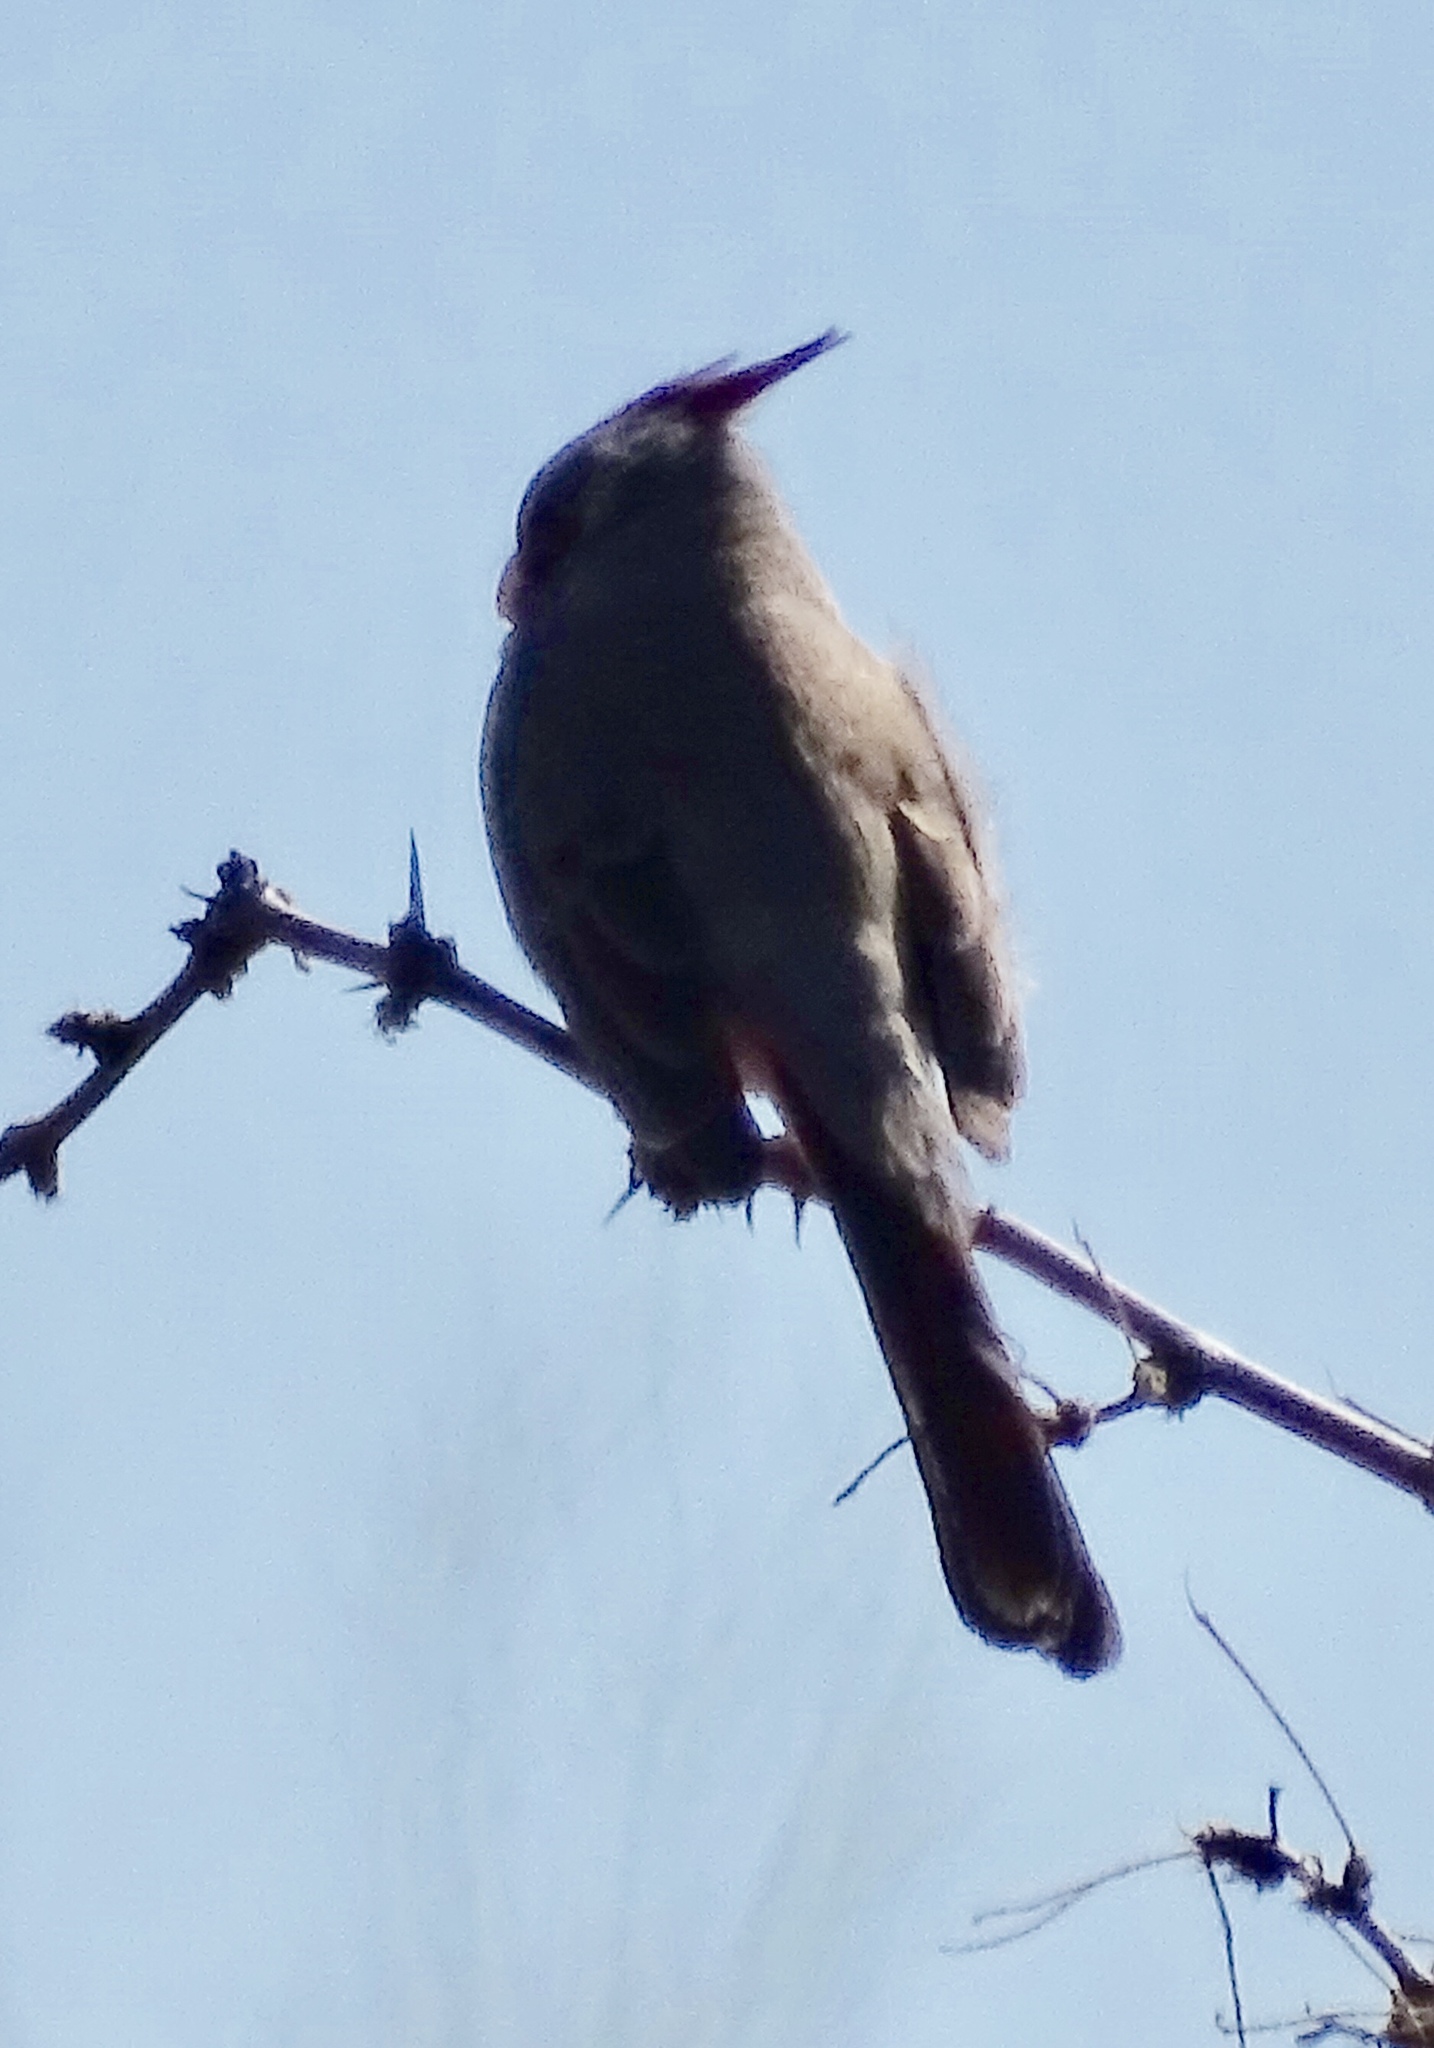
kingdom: Animalia
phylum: Chordata
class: Aves
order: Passeriformes
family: Cardinalidae
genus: Cardinalis
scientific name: Cardinalis sinuatus
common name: Pyrrhuloxia
